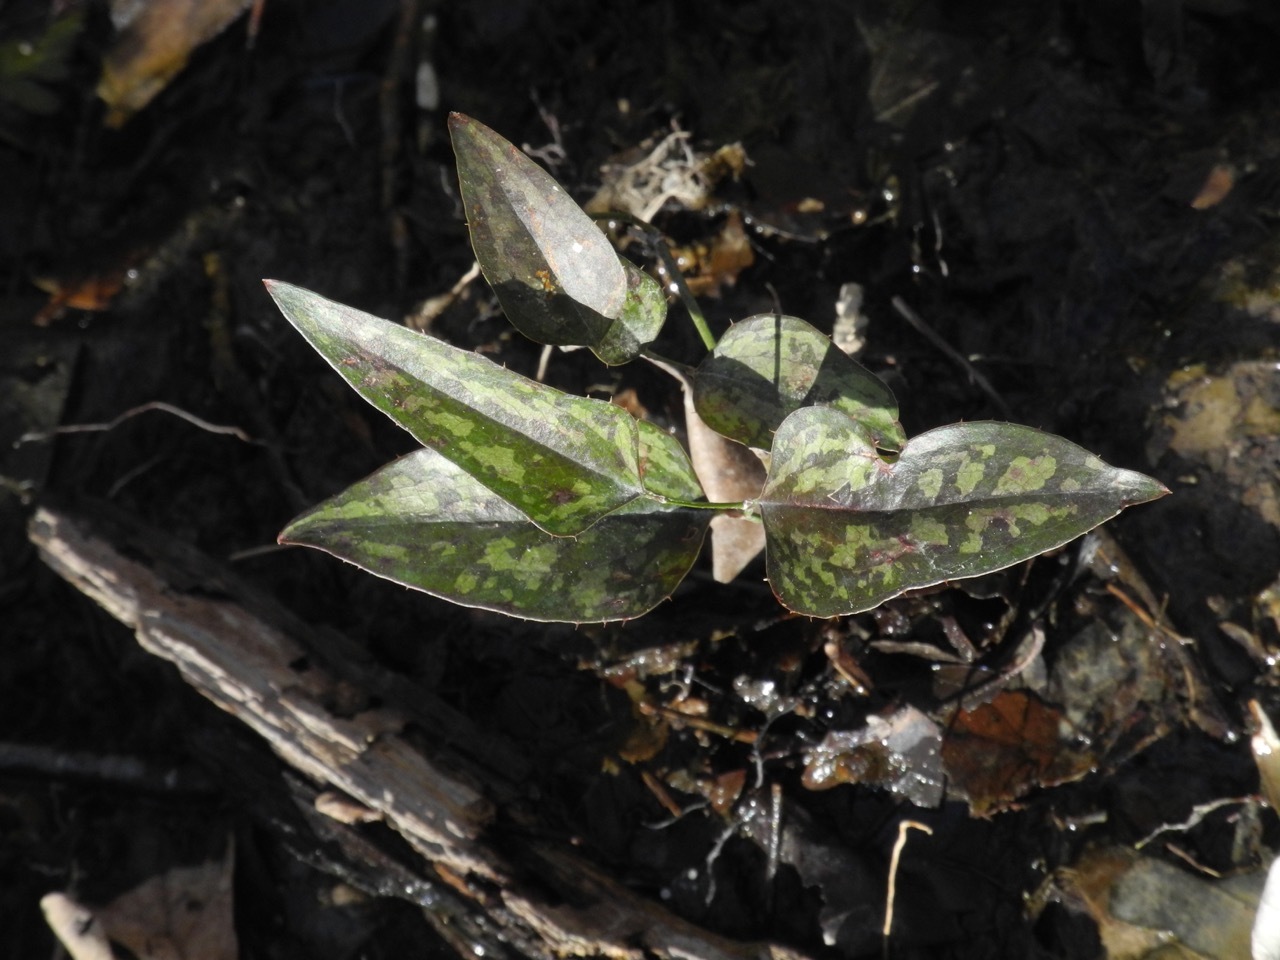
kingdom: Plantae
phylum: Tracheophyta
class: Liliopsida
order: Liliales
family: Smilacaceae
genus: Smilax
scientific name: Smilax bona-nox
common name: Catbrier
